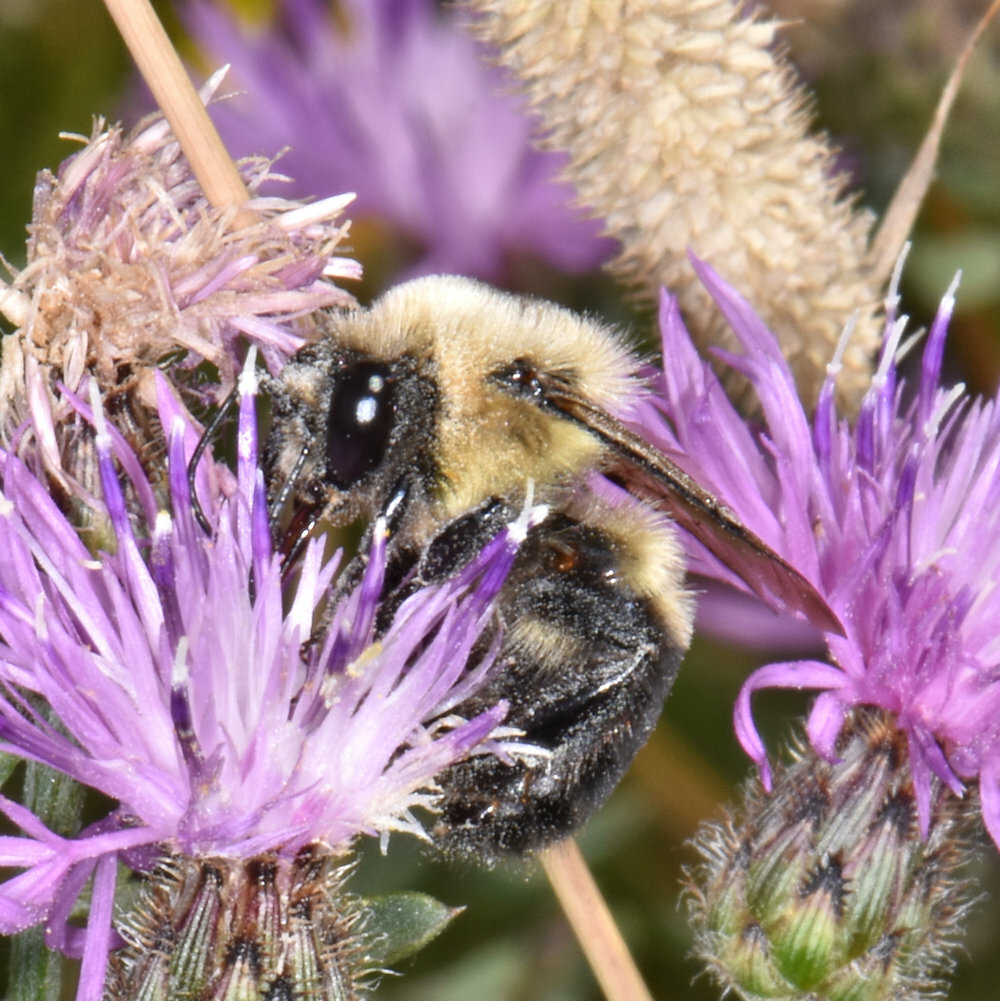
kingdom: Animalia
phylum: Arthropoda
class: Insecta
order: Hymenoptera
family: Apidae
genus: Bombus
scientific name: Bombus griseocollis
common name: Brown-belted bumble bee
